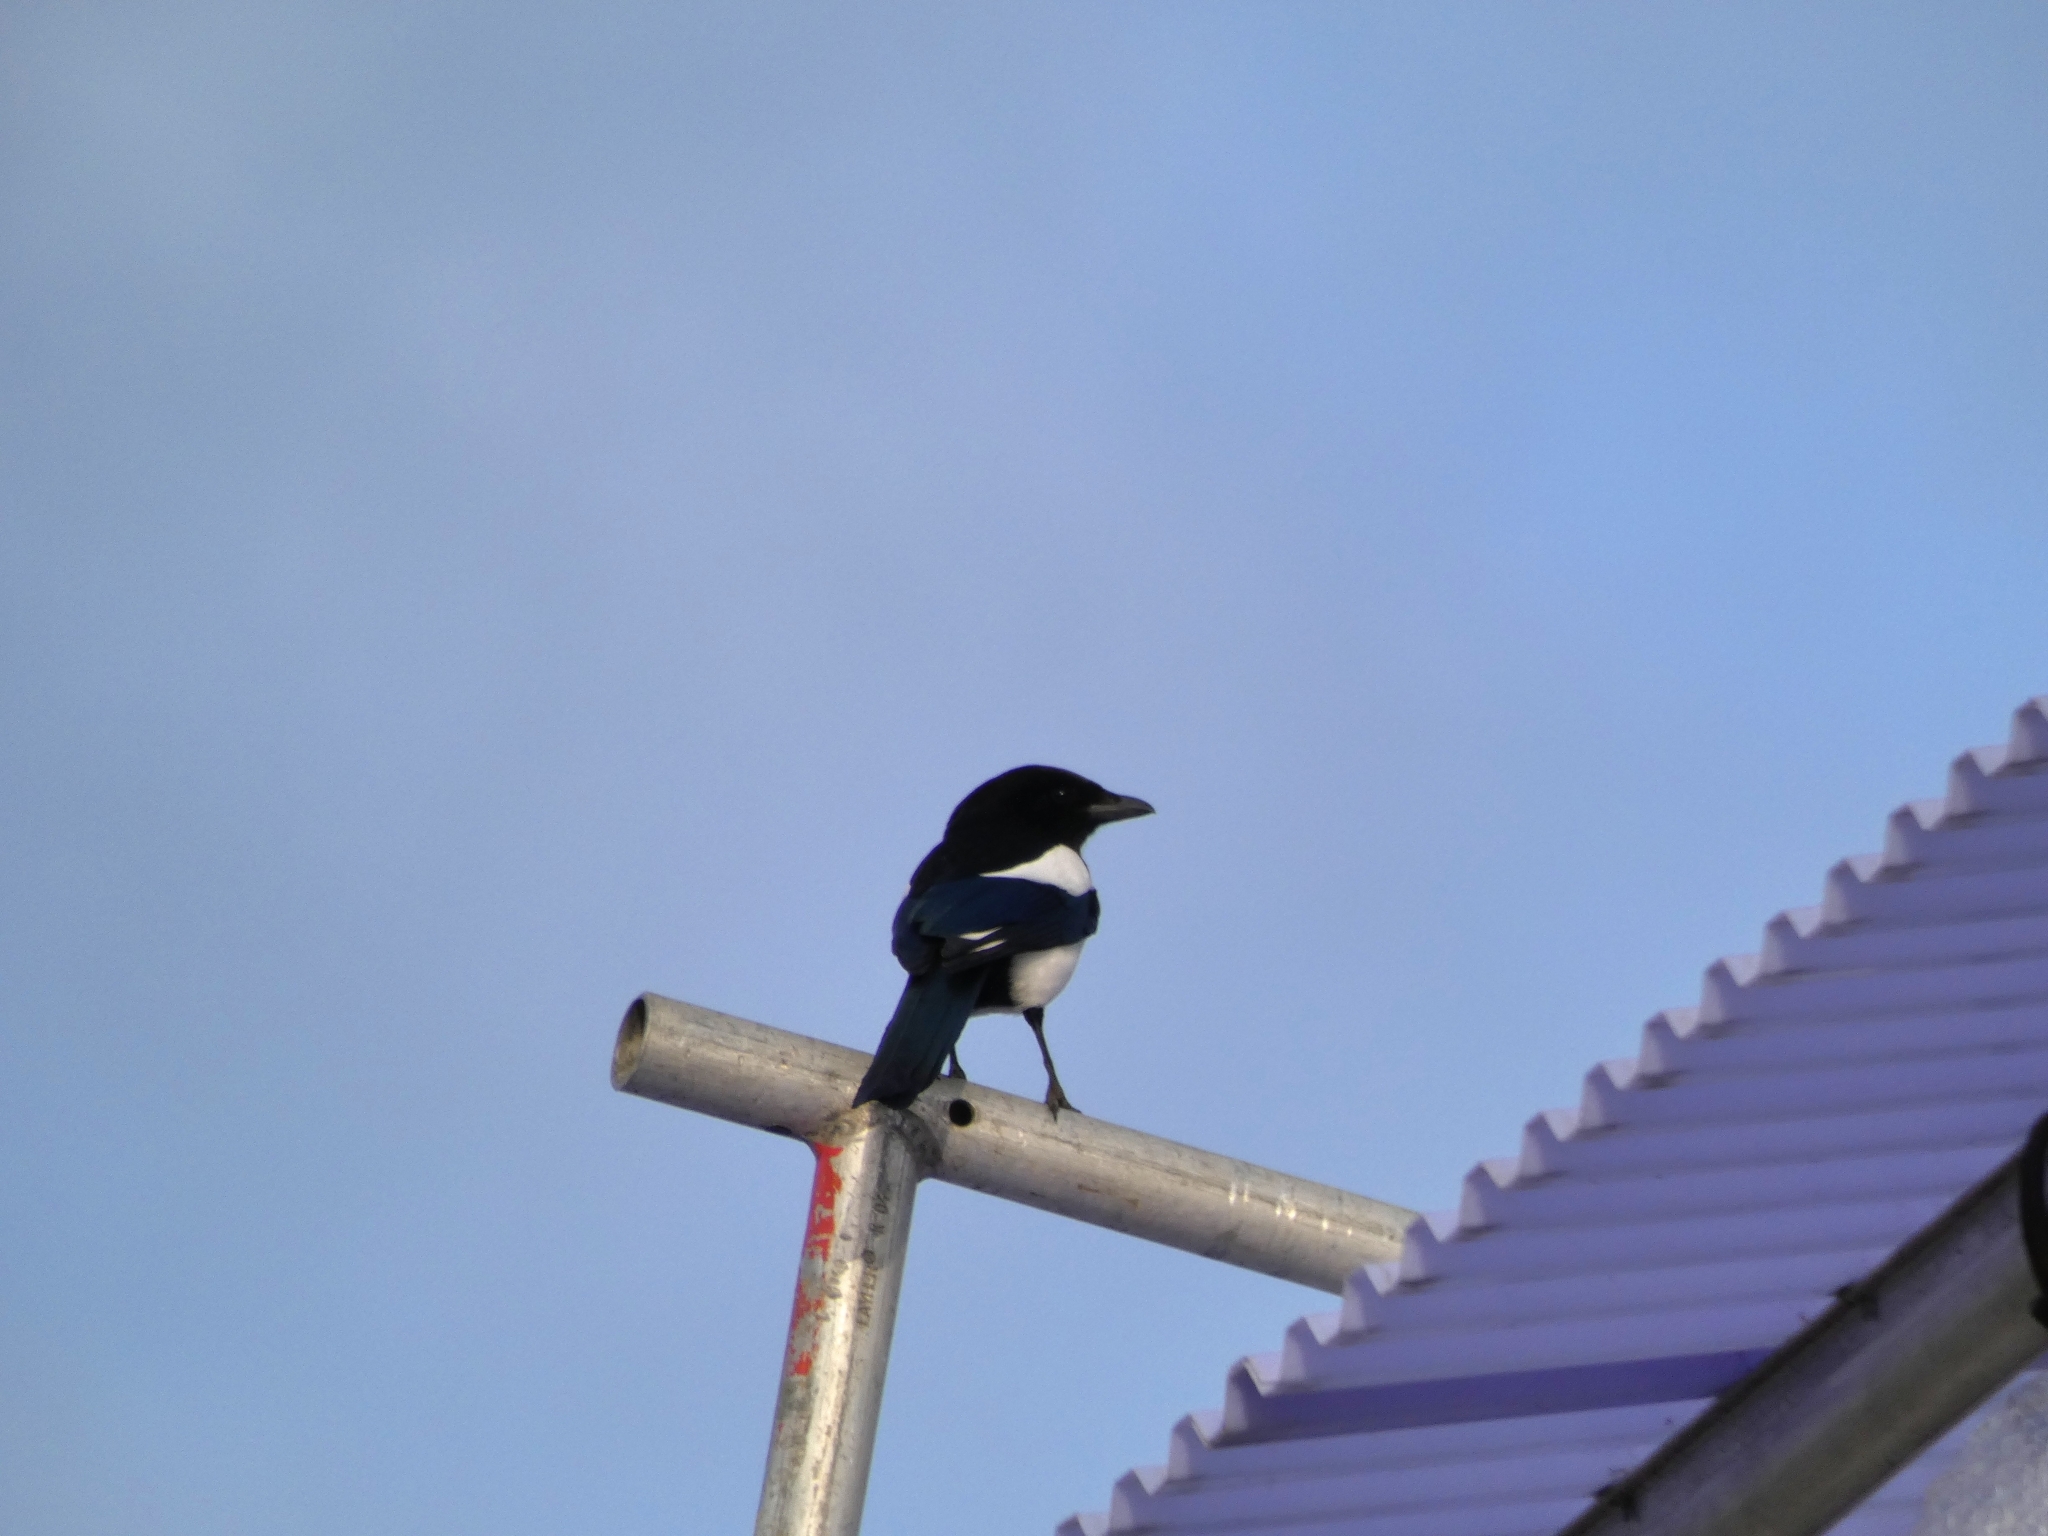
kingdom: Animalia
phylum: Chordata
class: Aves
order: Passeriformes
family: Corvidae
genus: Pica
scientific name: Pica pica
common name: Eurasian magpie
